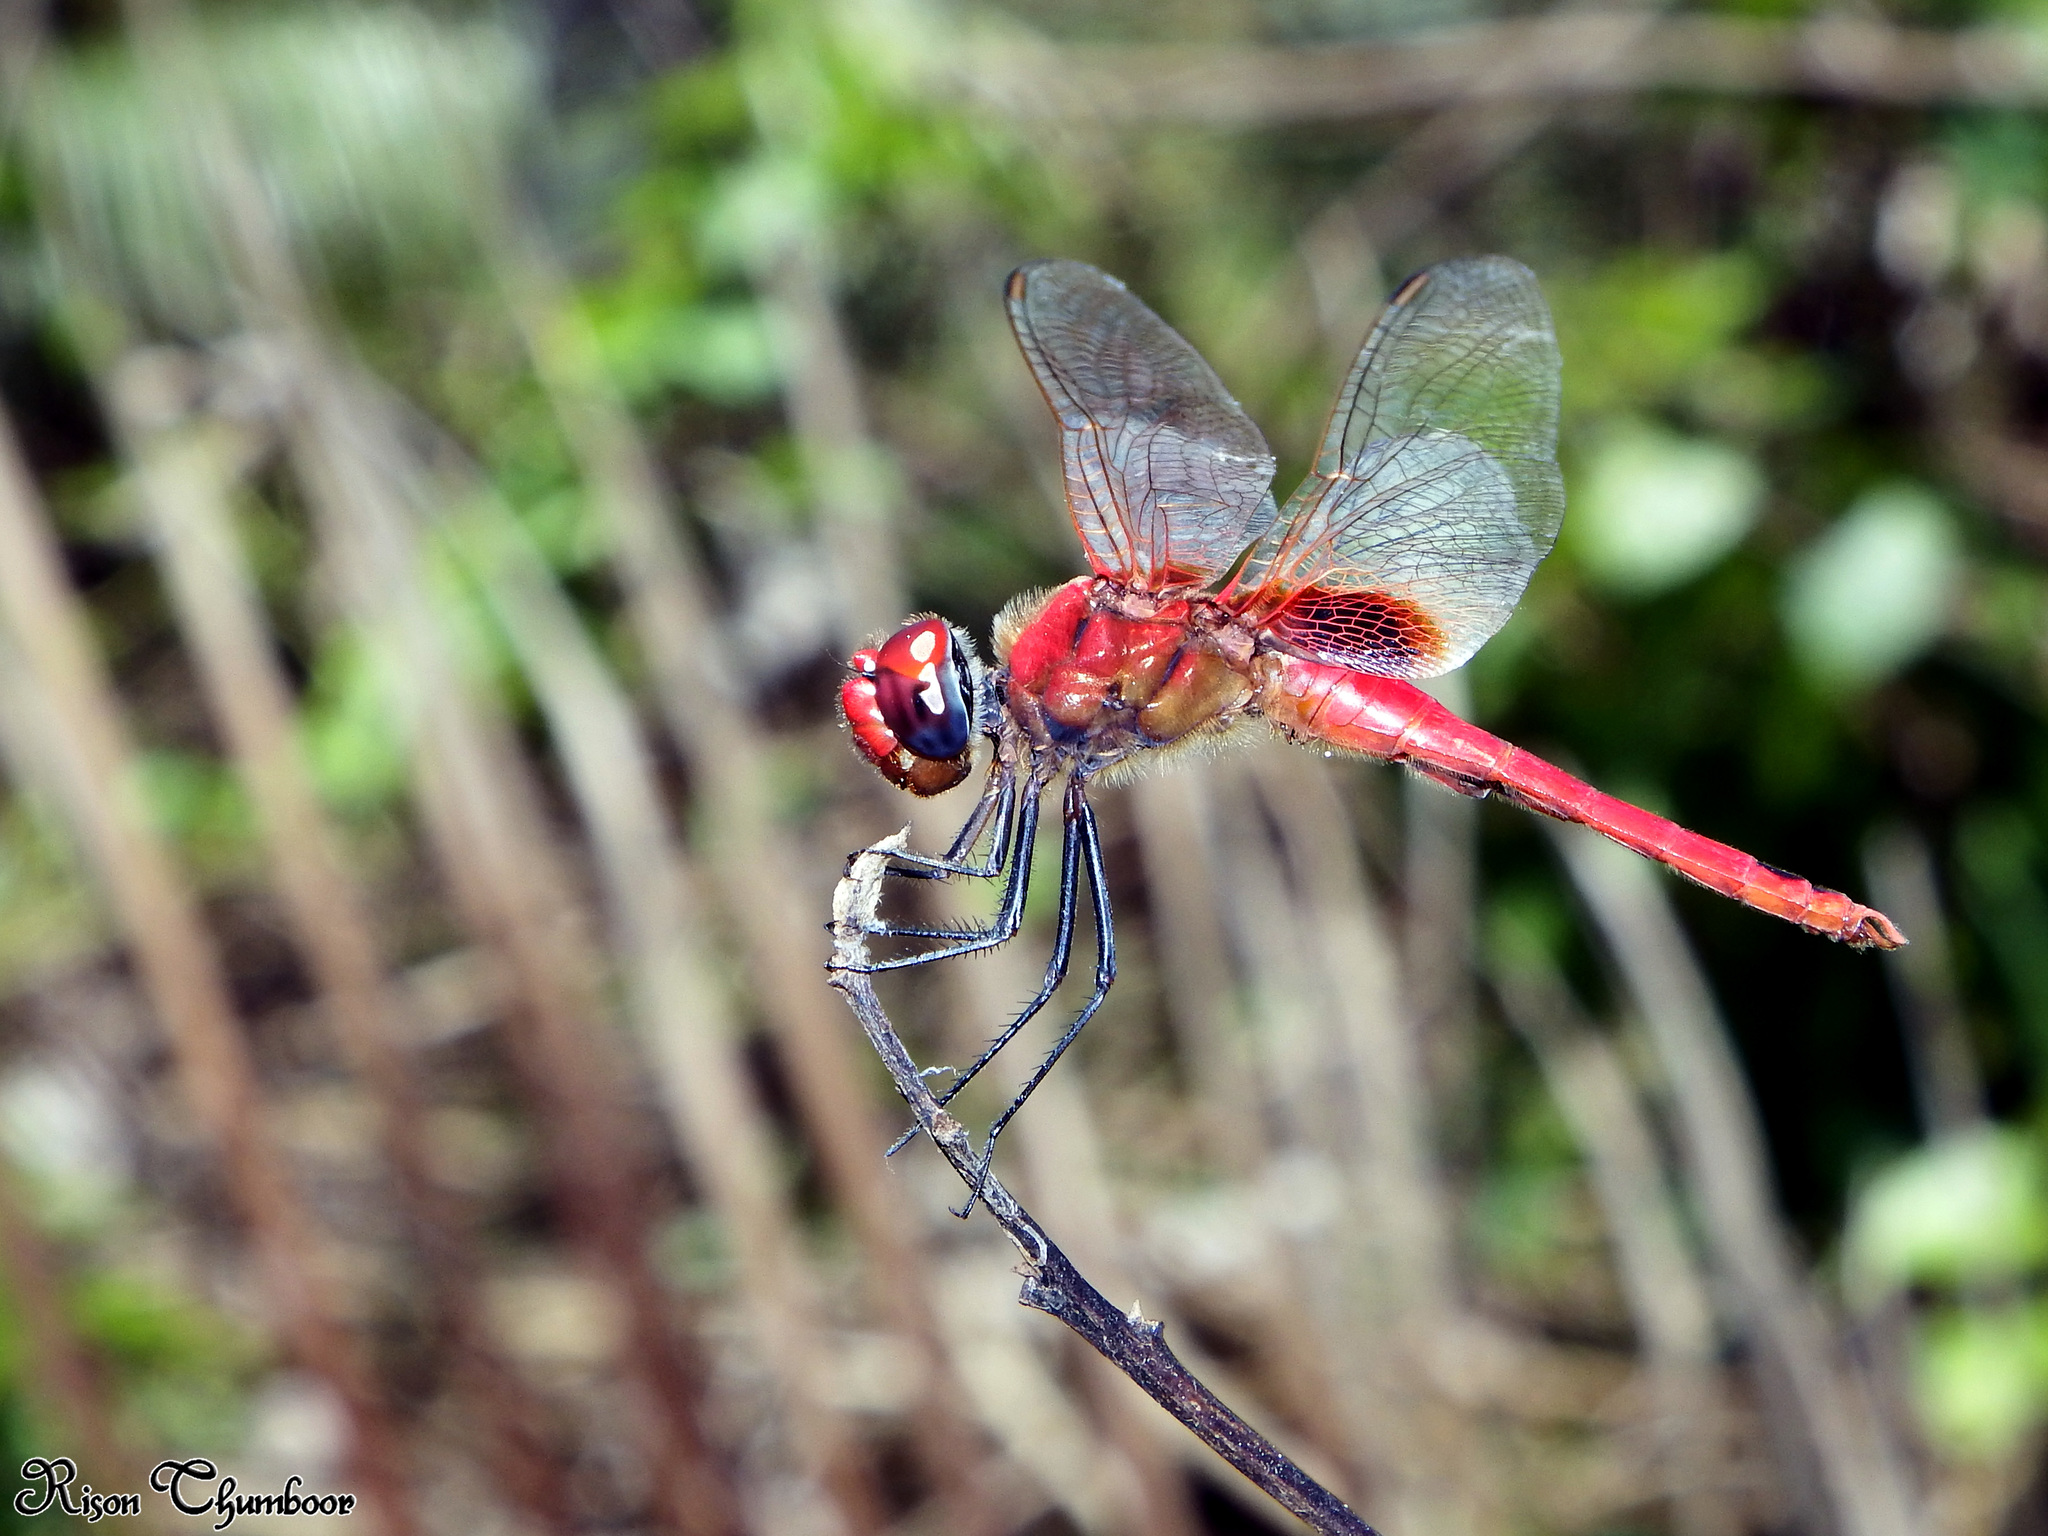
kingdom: Animalia
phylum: Arthropoda
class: Insecta
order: Odonata
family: Libellulidae
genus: Urothemis
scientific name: Urothemis signata
